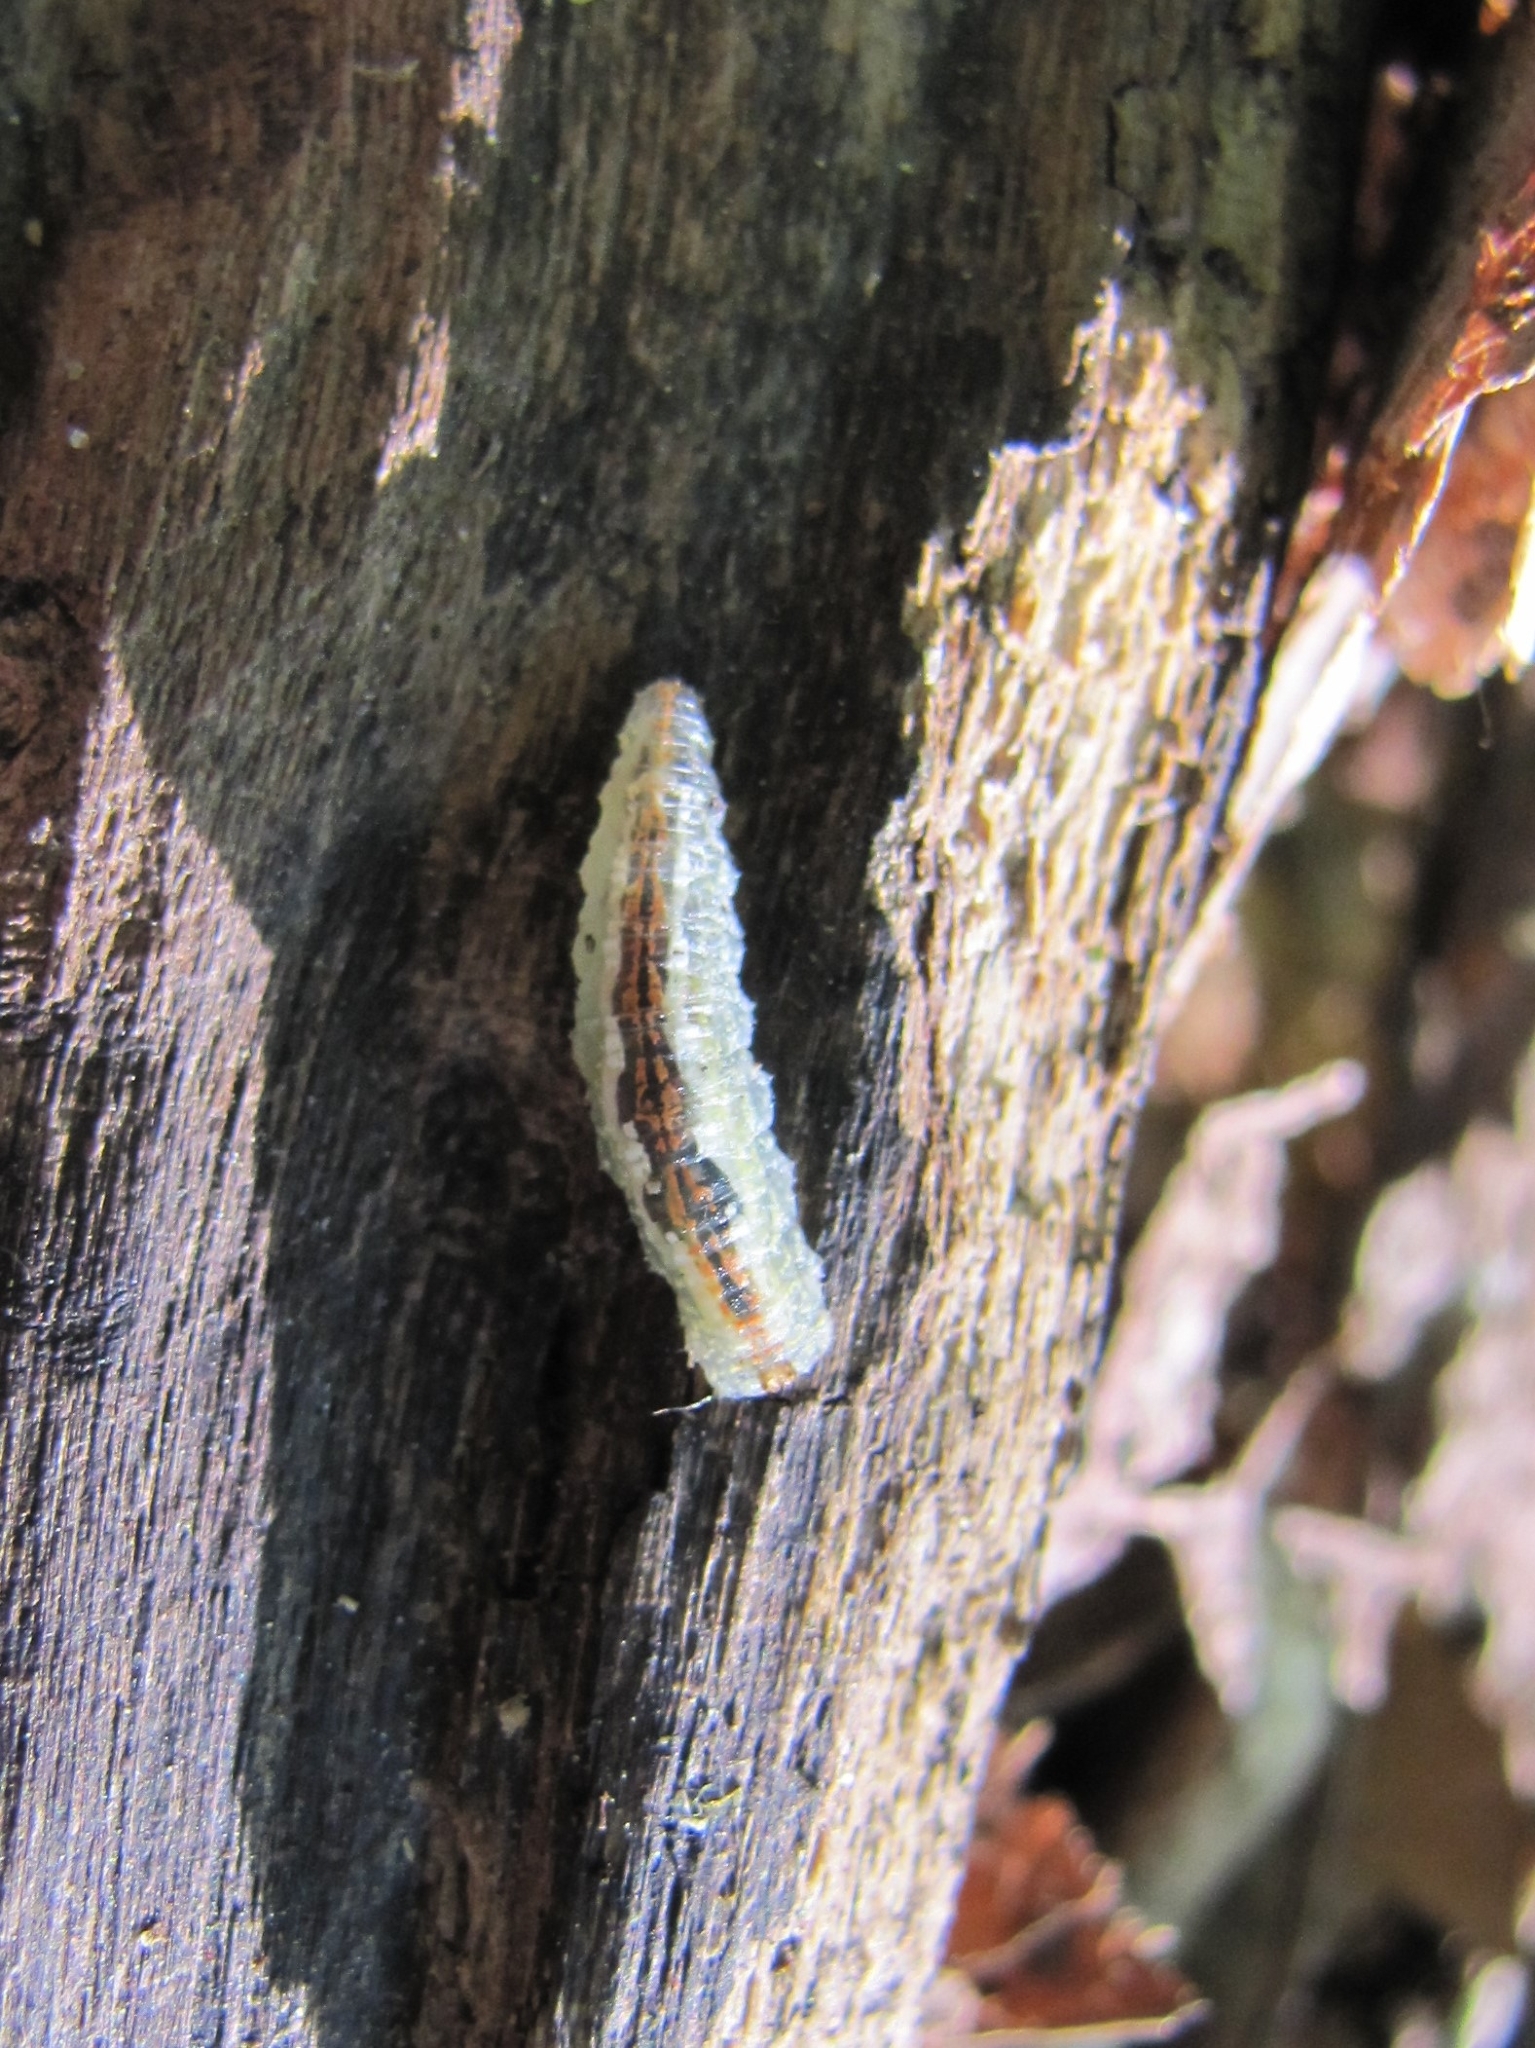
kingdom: Animalia
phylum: Arthropoda
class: Insecta
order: Diptera
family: Syrphidae
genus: Syrphus
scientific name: Syrphus
